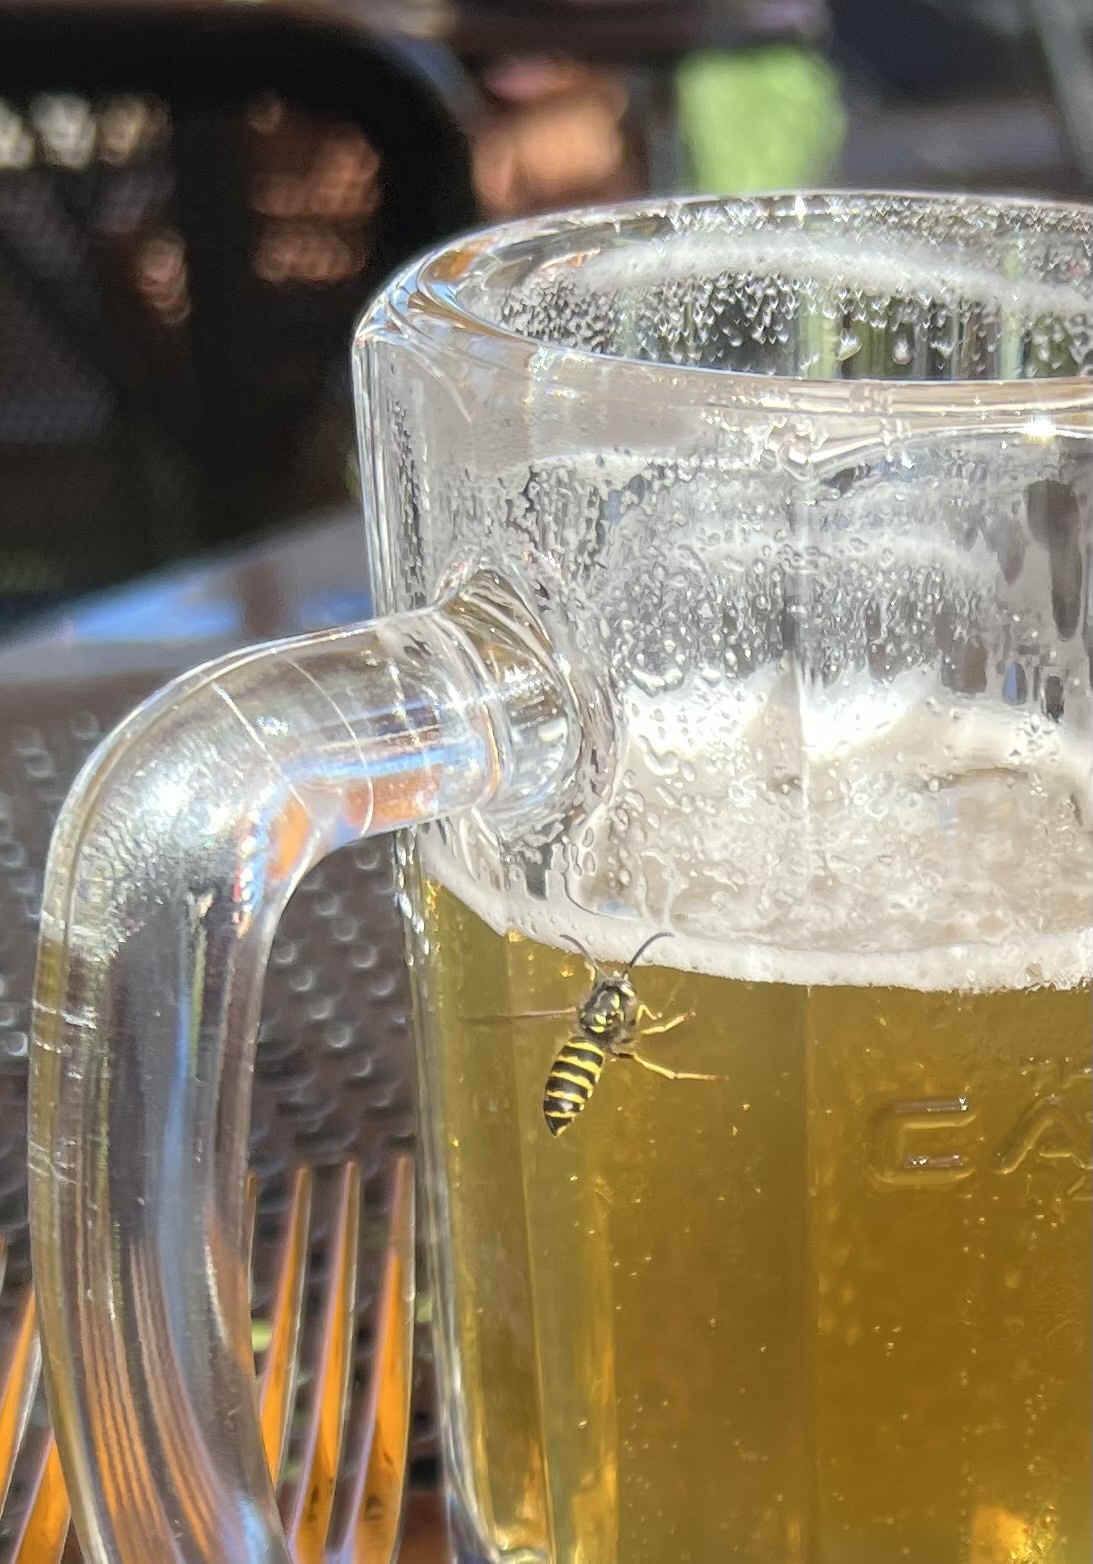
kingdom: Animalia
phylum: Arthropoda
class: Insecta
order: Hymenoptera
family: Vespidae
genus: Vespula
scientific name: Vespula alascensis
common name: Alaska yellowjacket
